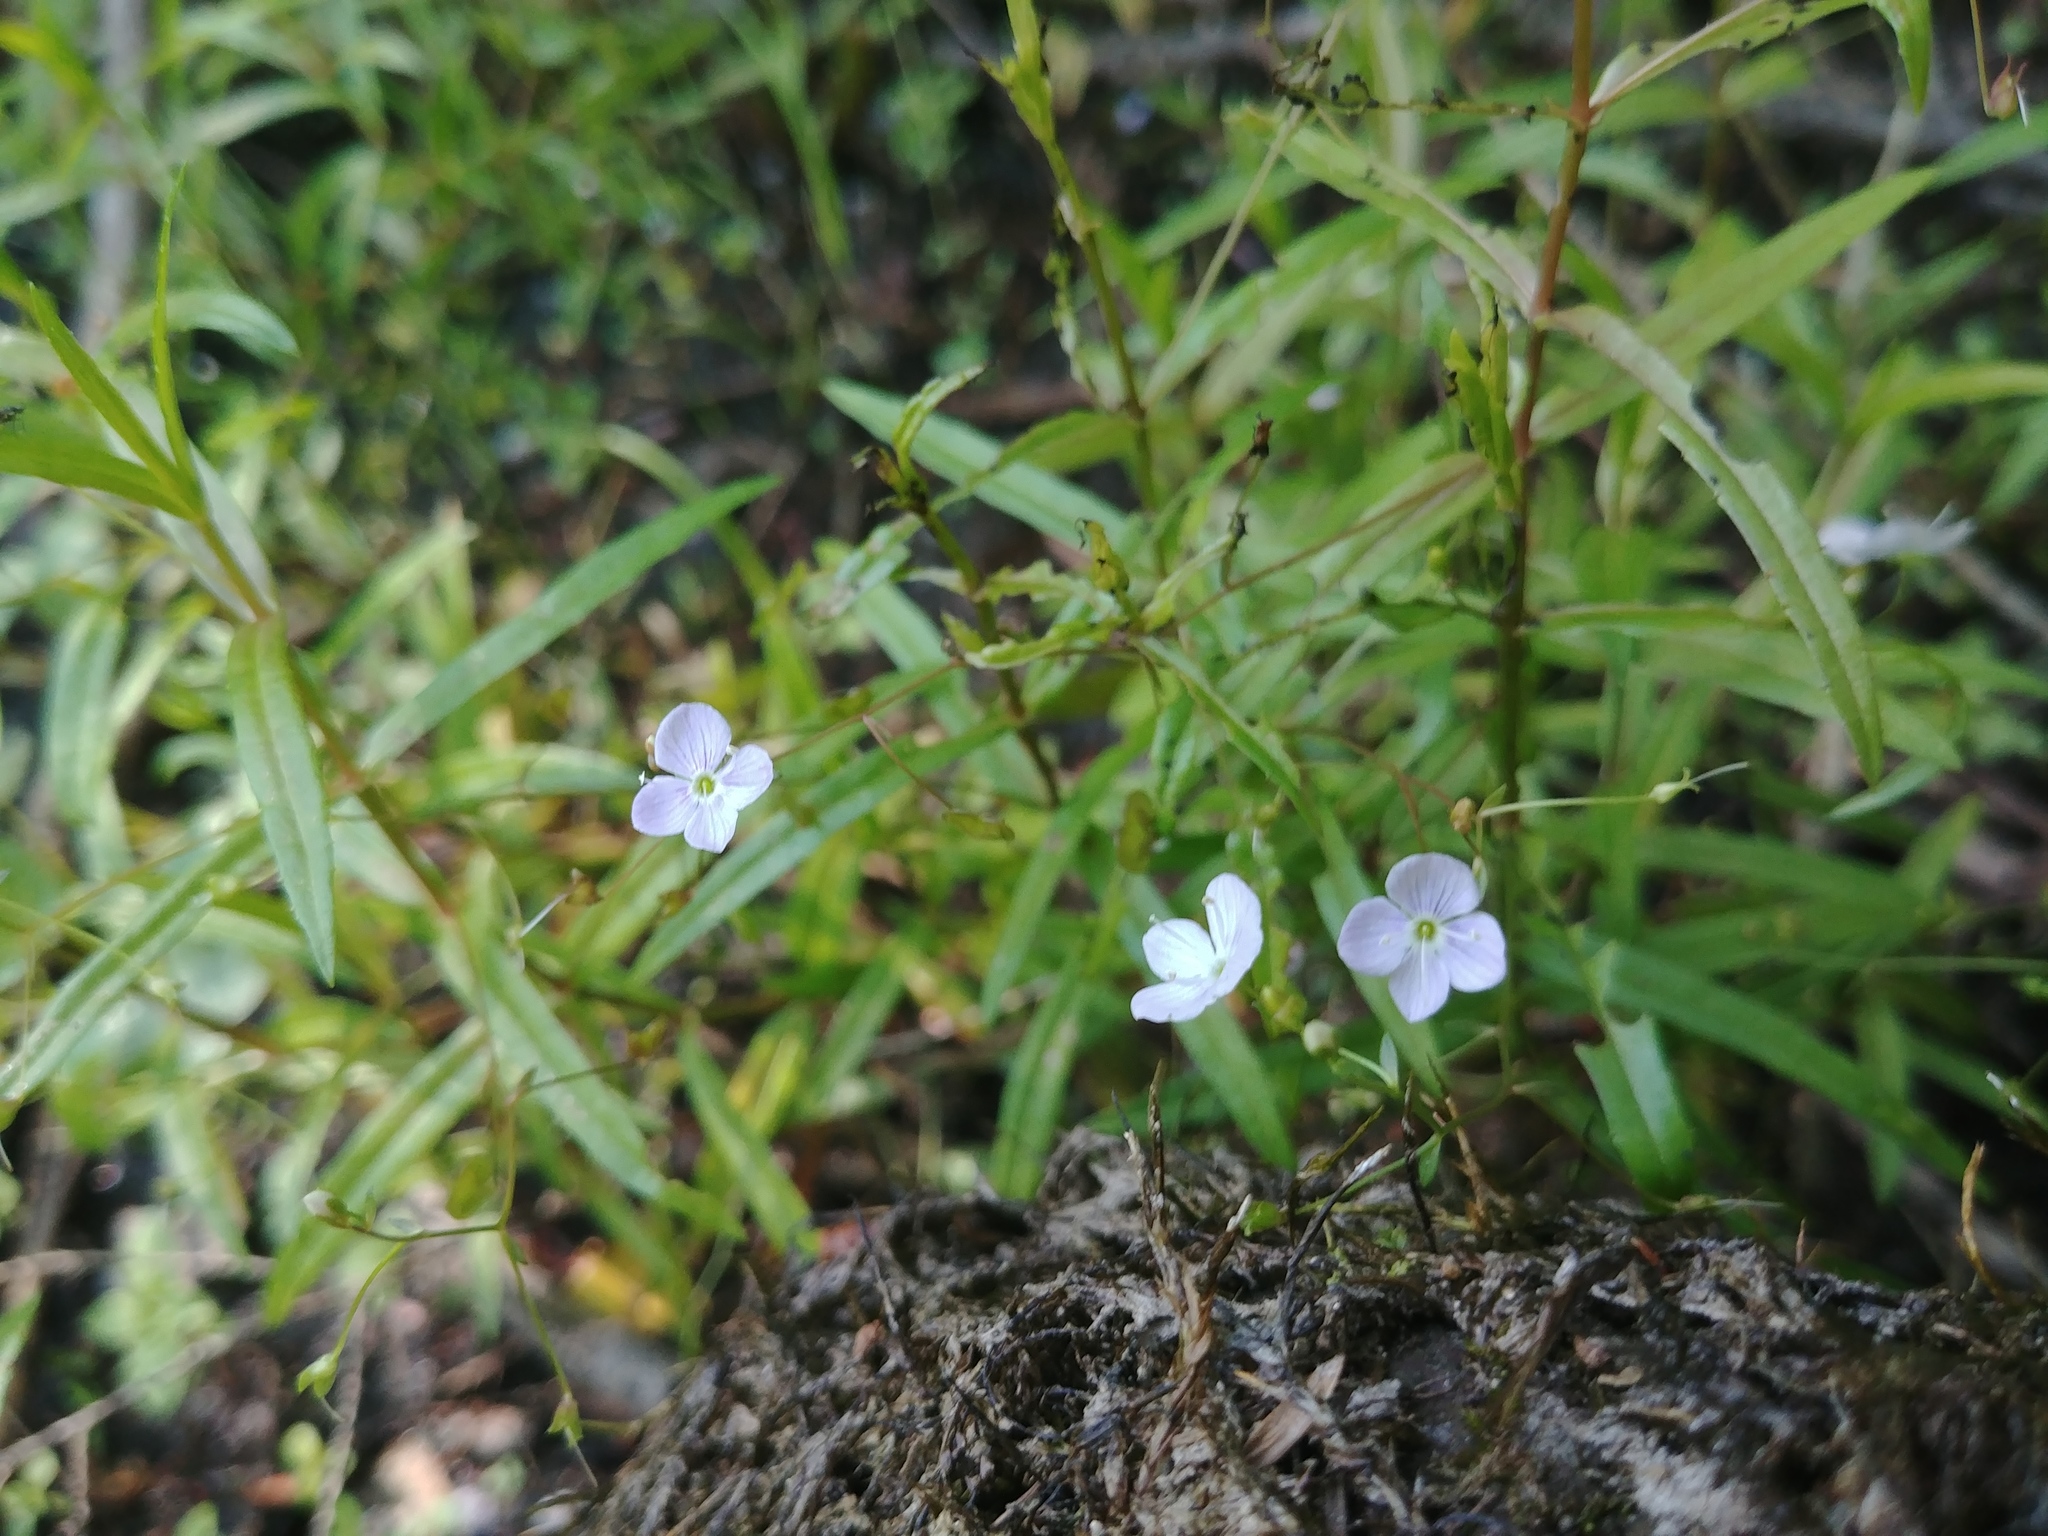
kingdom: Plantae
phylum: Tracheophyta
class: Magnoliopsida
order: Lamiales
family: Plantaginaceae
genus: Veronica
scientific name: Veronica scutellata
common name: Marsh speedwell
